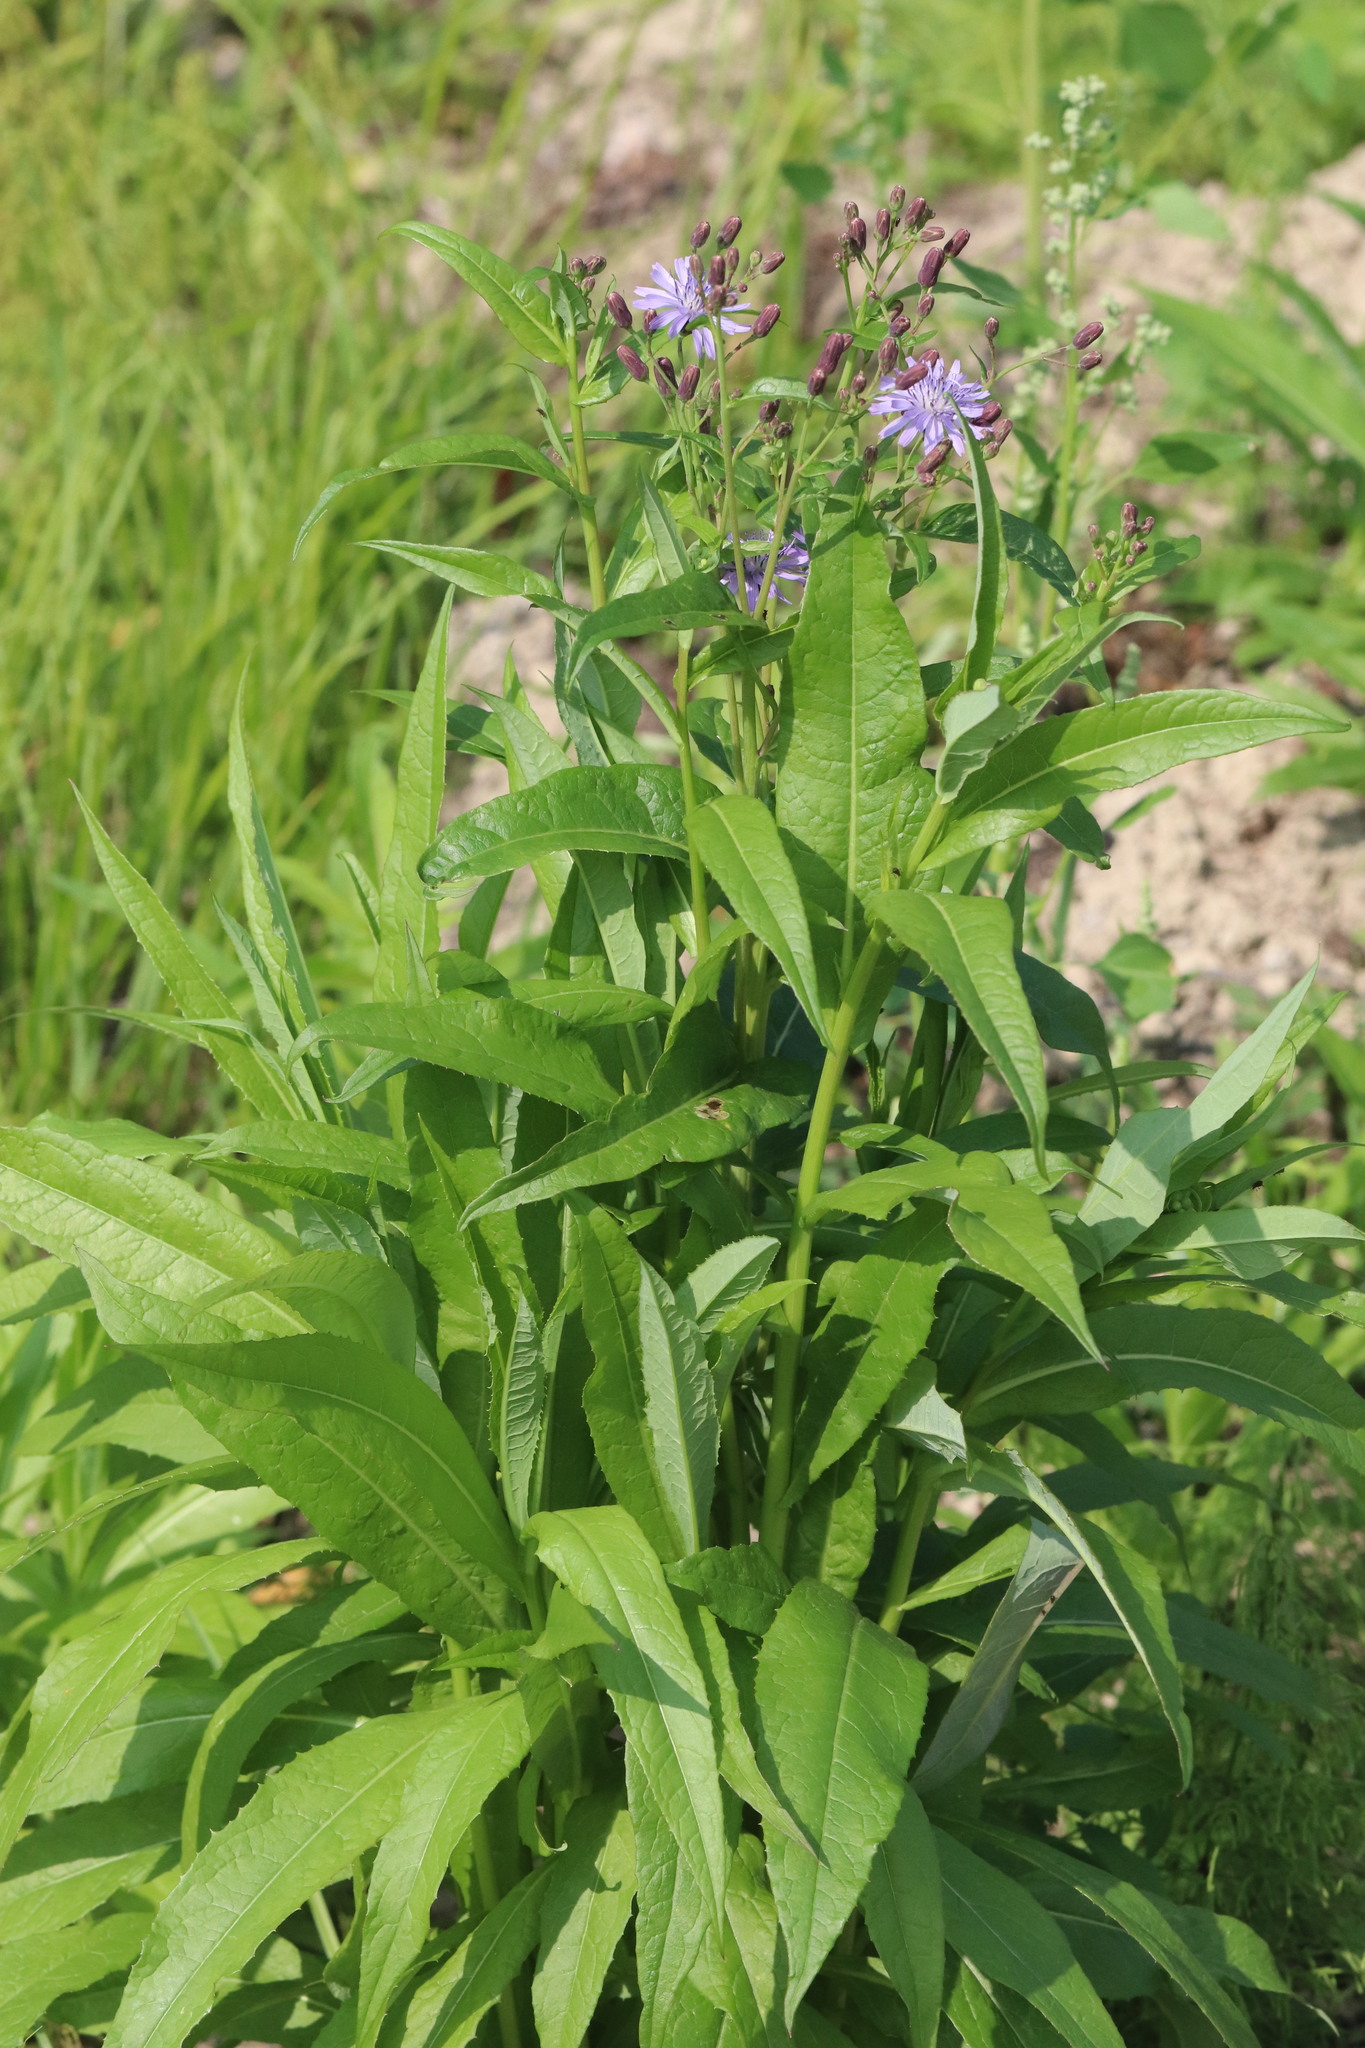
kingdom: Plantae
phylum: Tracheophyta
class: Magnoliopsida
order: Asterales
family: Asteraceae
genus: Lactuca
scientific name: Lactuca sibirica
